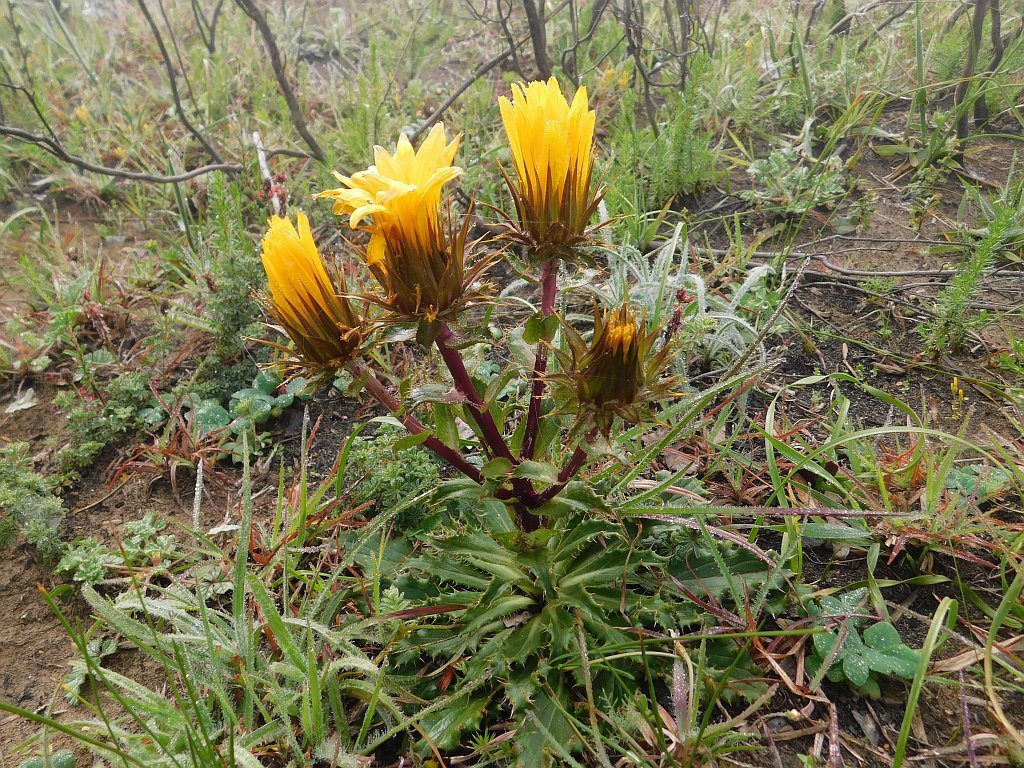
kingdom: Plantae
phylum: Tracheophyta
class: Magnoliopsida
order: Asterales
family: Asteraceae
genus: Berkheya
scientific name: Berkheya armata
